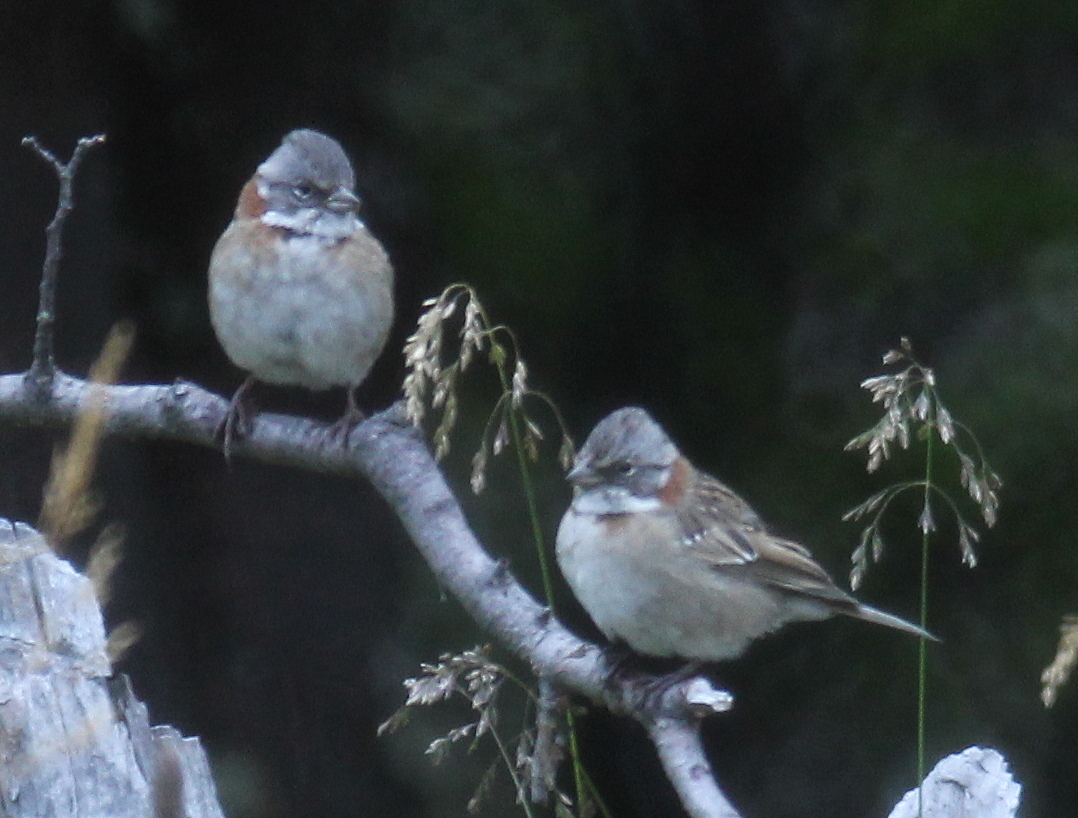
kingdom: Animalia
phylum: Chordata
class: Aves
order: Passeriformes
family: Passerellidae
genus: Zonotrichia
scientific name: Zonotrichia capensis
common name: Rufous-collared sparrow
